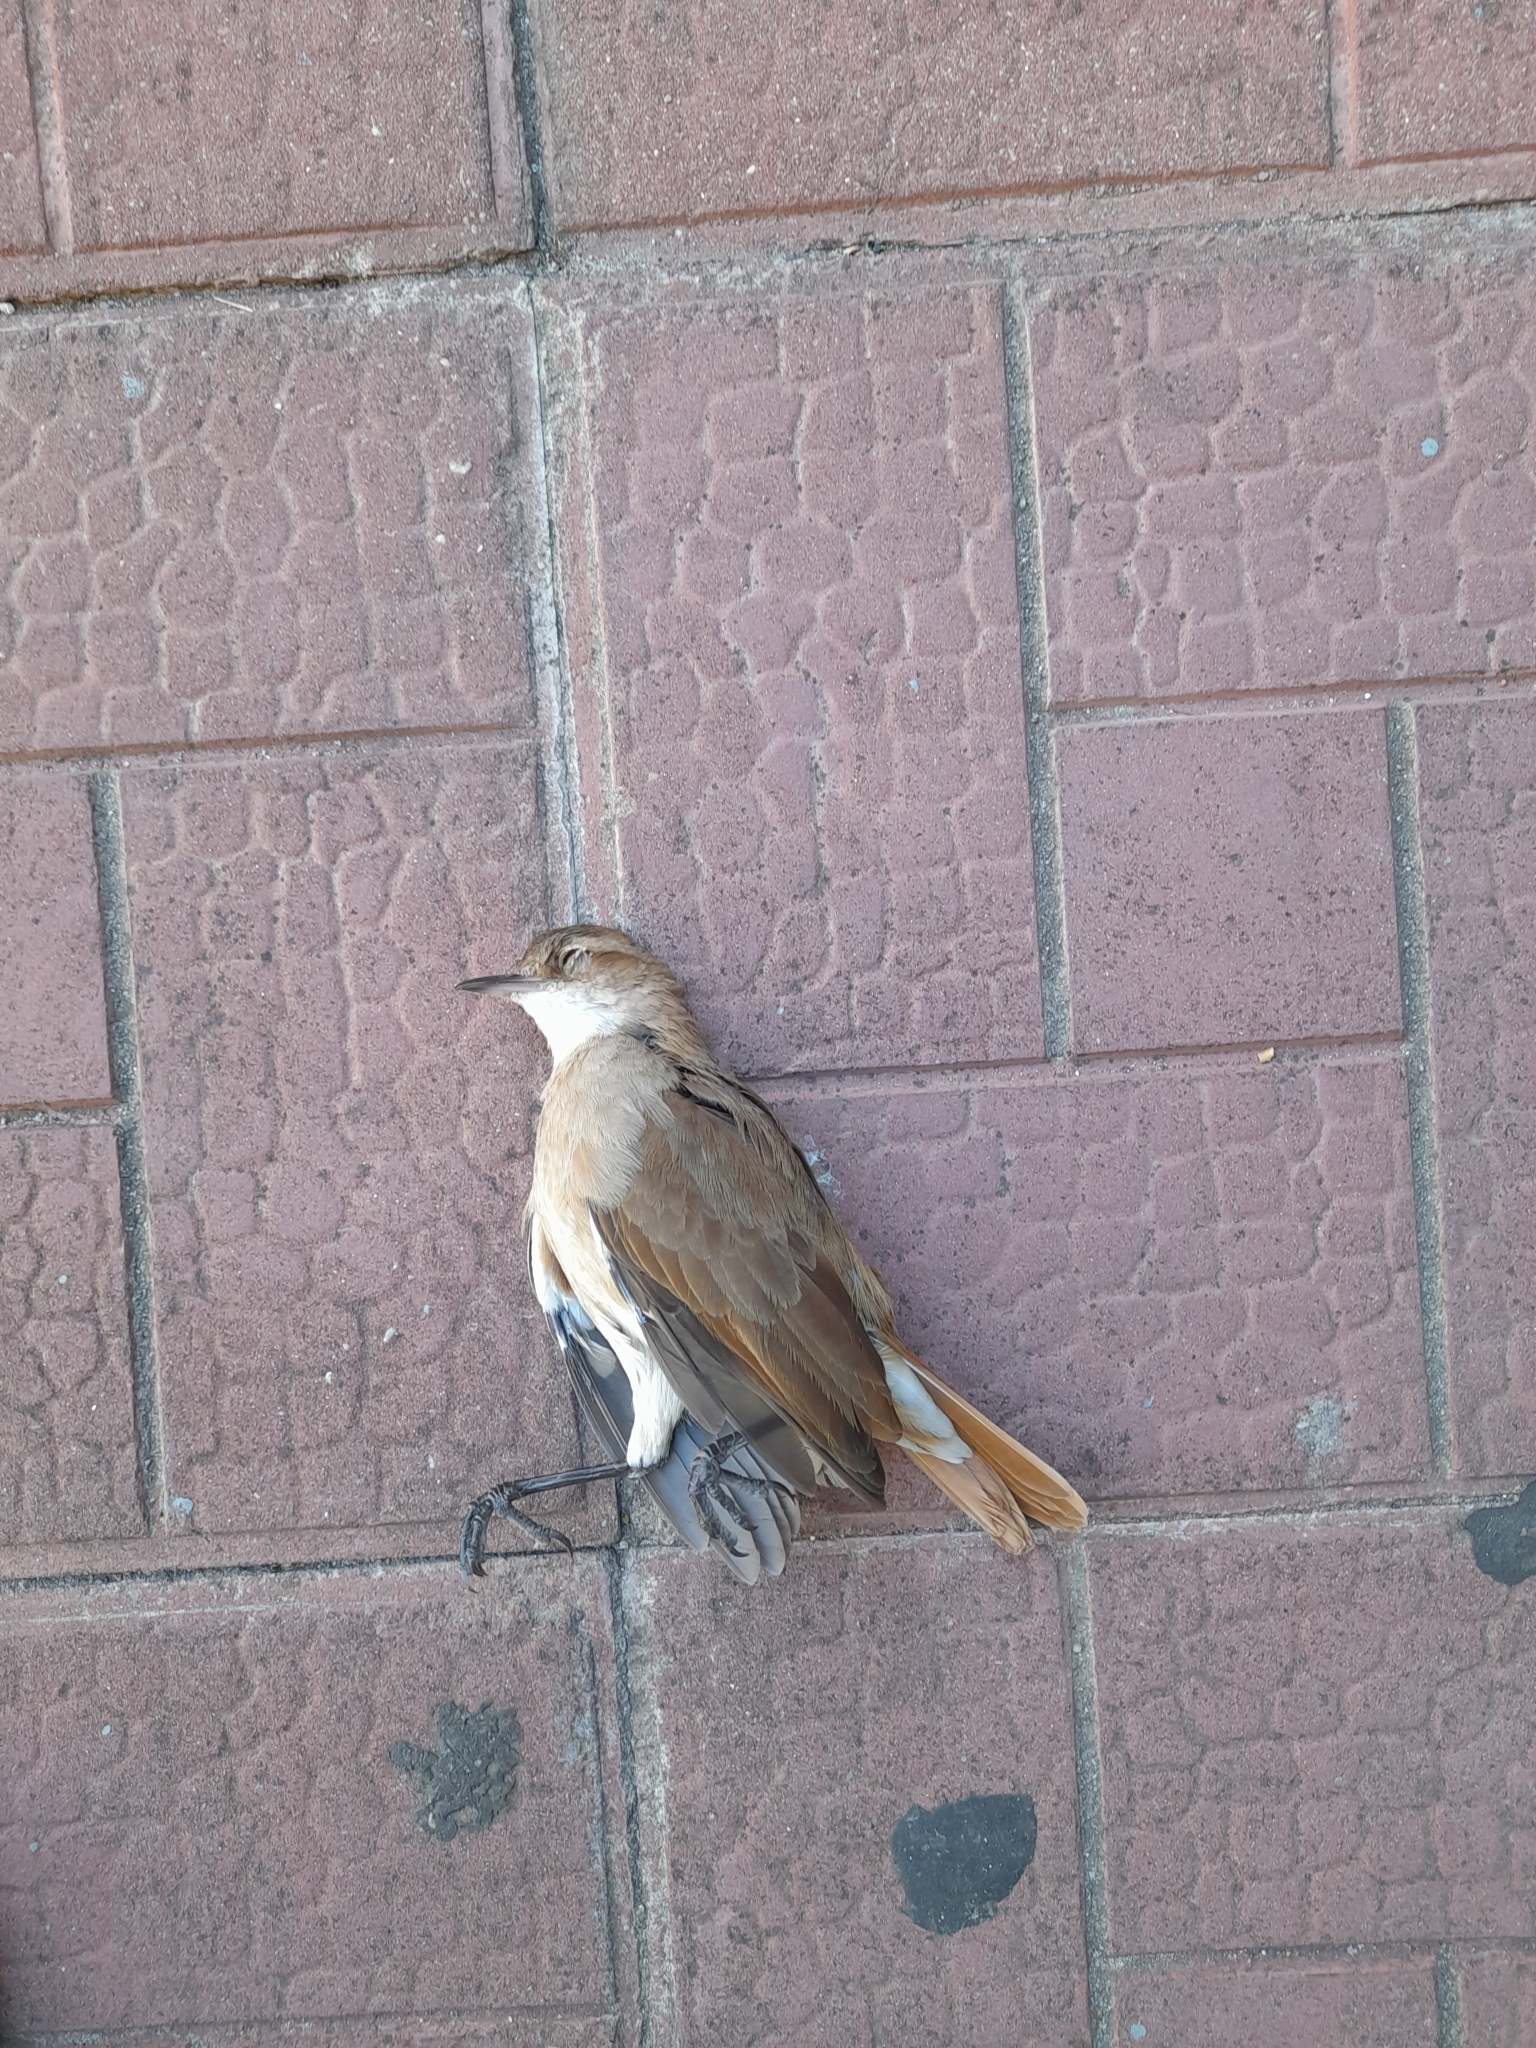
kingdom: Animalia
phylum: Chordata
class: Aves
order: Passeriformes
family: Furnariidae
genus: Furnarius
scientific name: Furnarius rufus
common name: Rufous hornero
